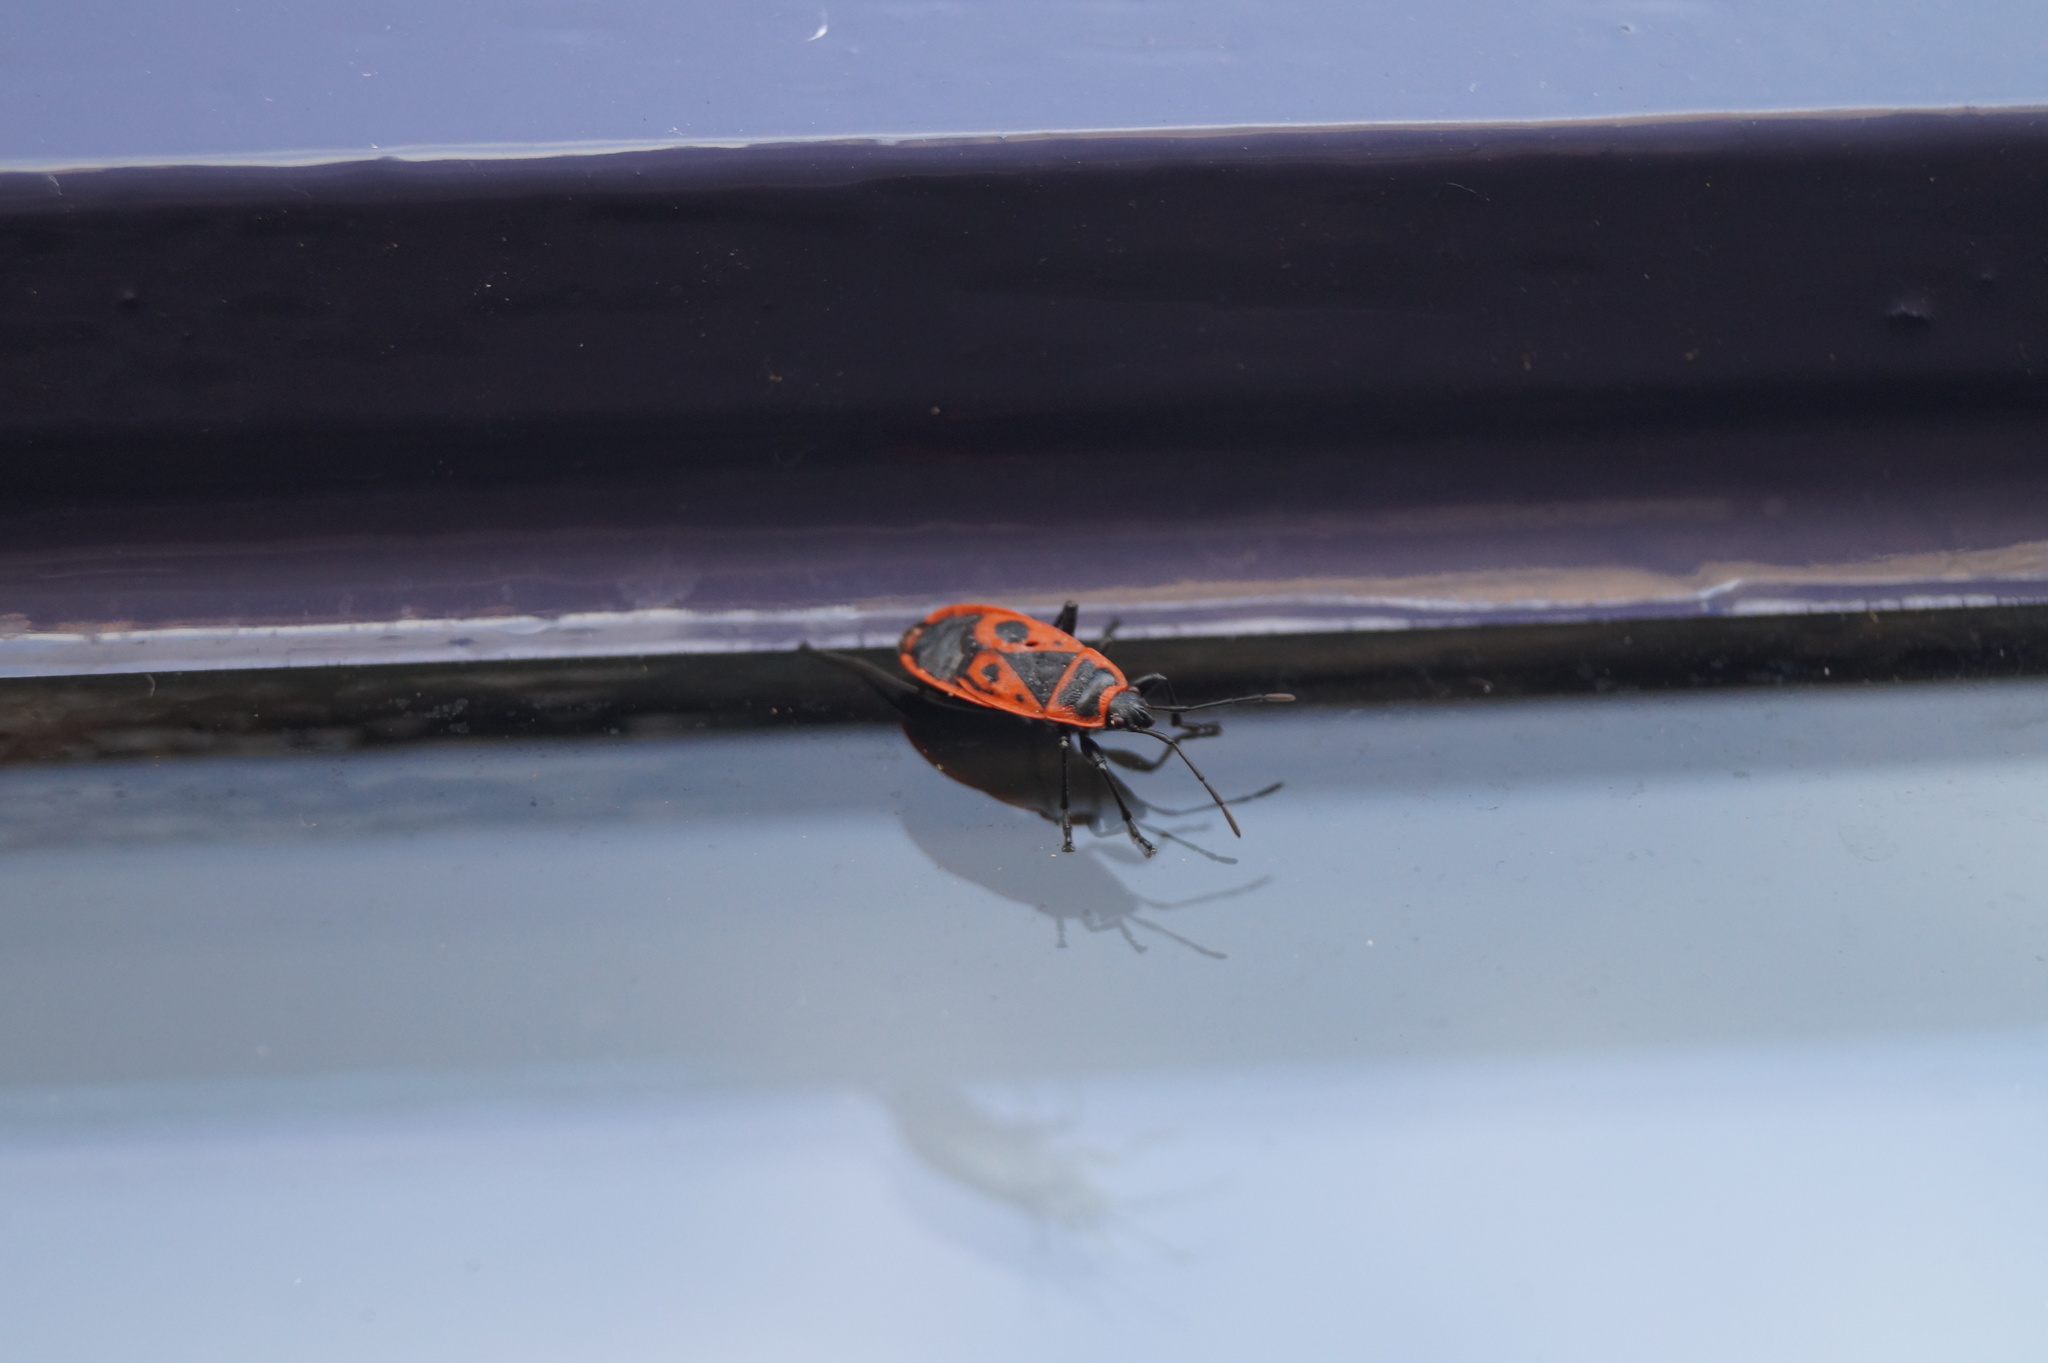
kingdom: Animalia
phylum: Arthropoda
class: Insecta
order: Hemiptera
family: Pyrrhocoridae
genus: Pyrrhocoris
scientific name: Pyrrhocoris apterus
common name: Firebug
